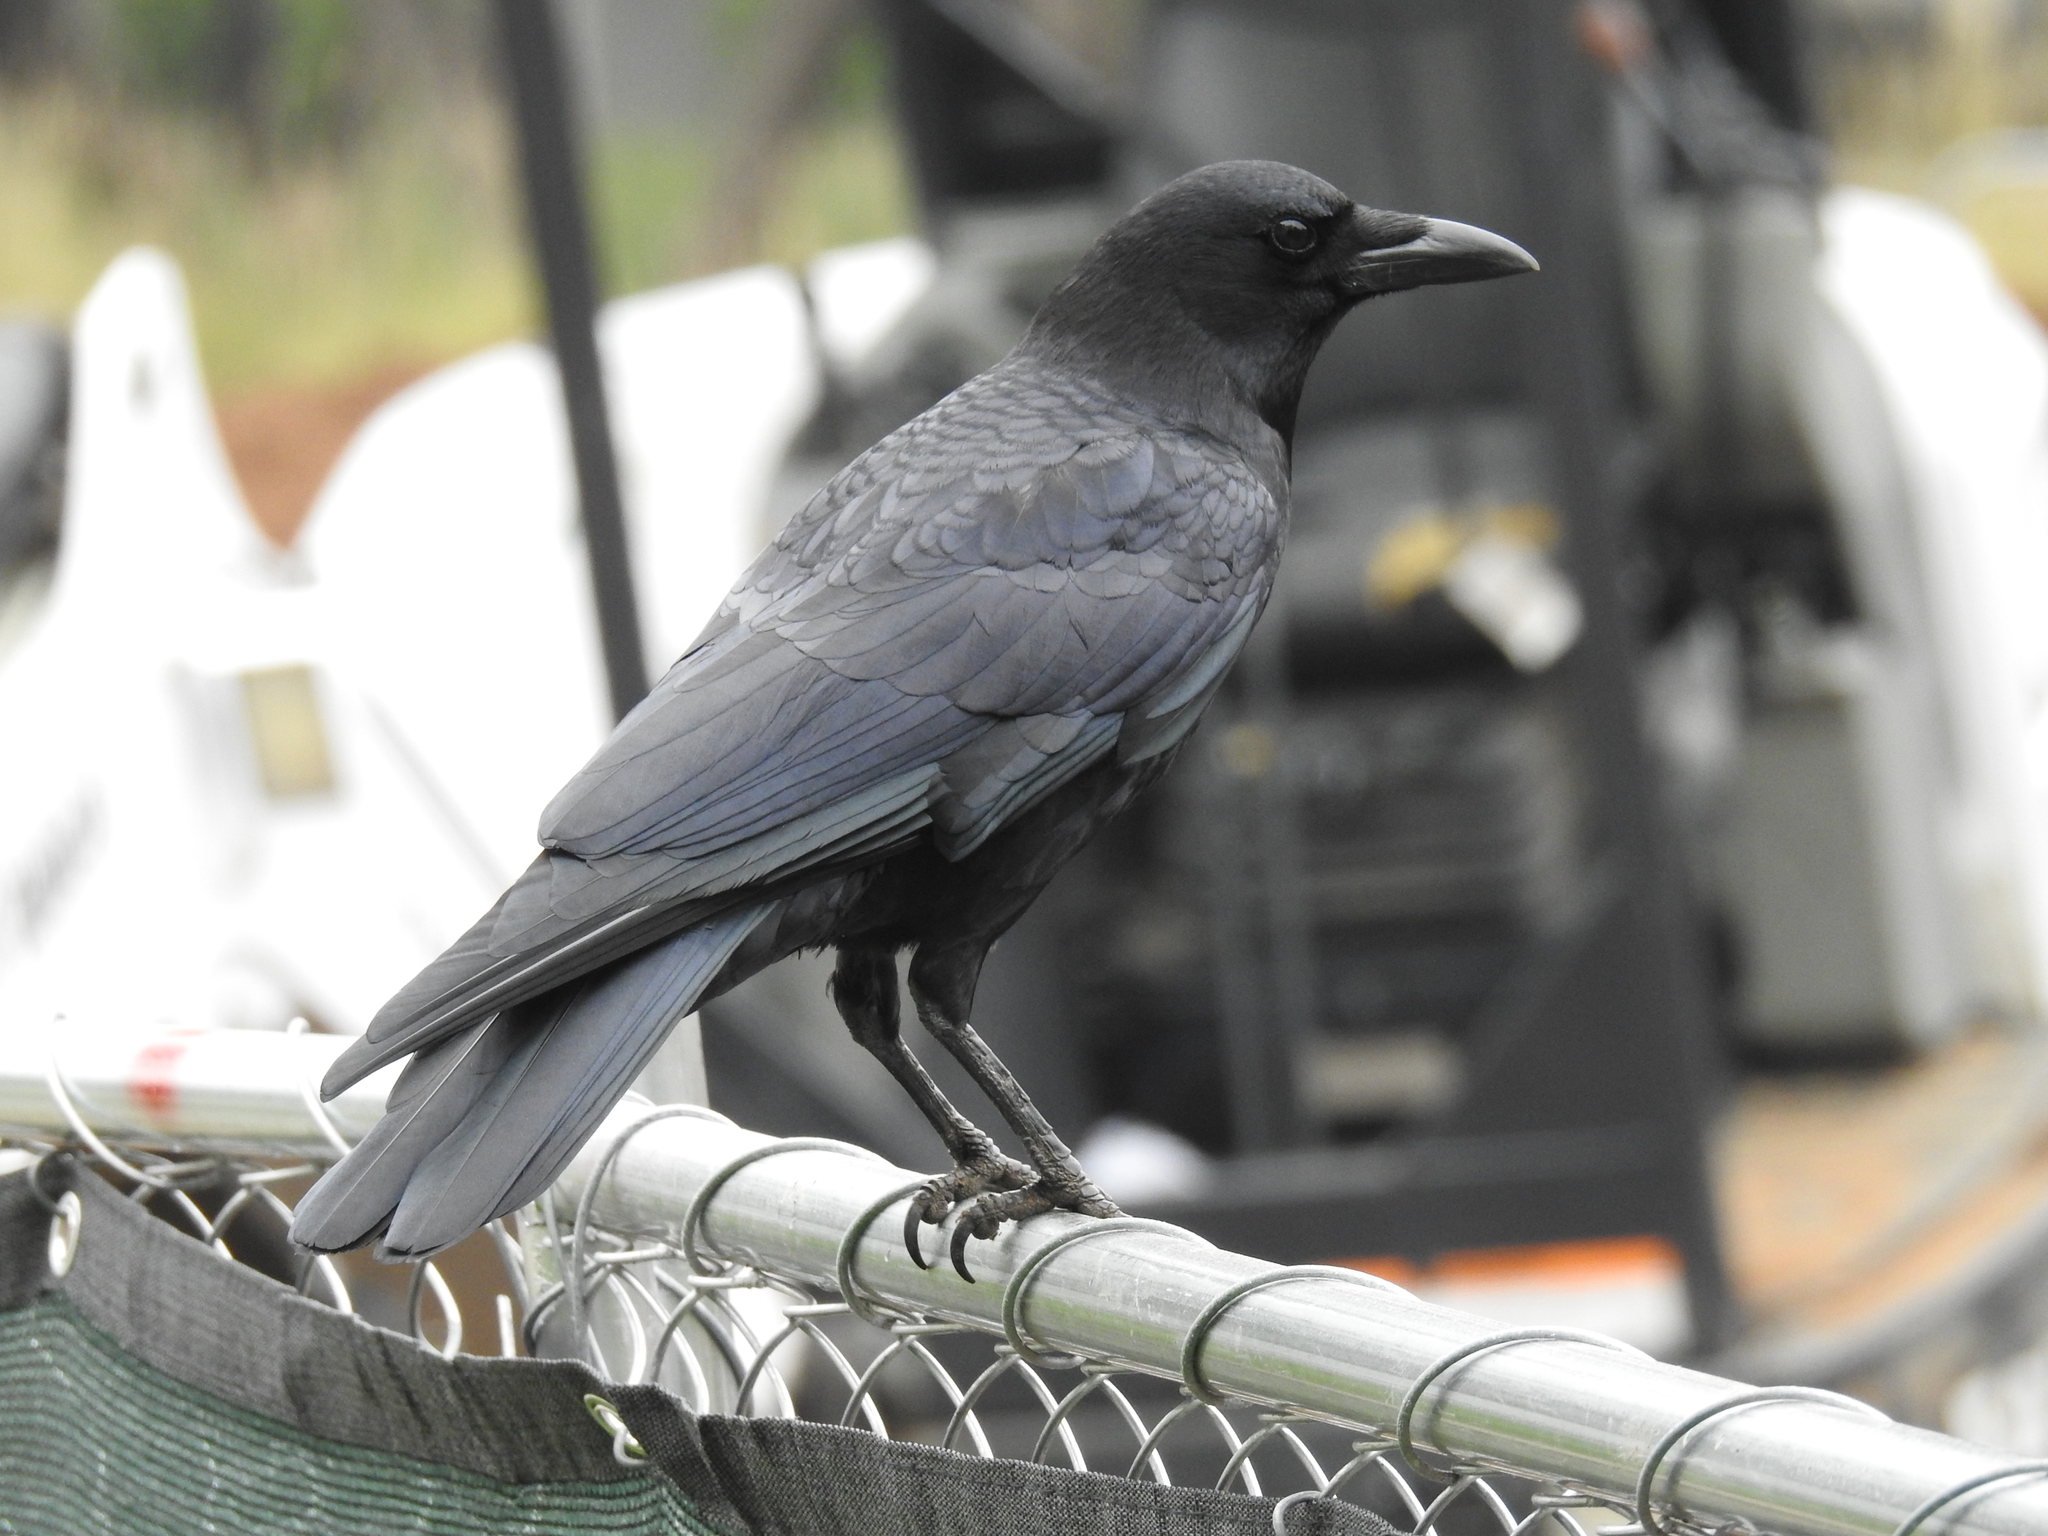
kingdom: Animalia
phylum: Chordata
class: Aves
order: Passeriformes
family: Corvidae
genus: Corvus
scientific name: Corvus brachyrhynchos
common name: American crow
